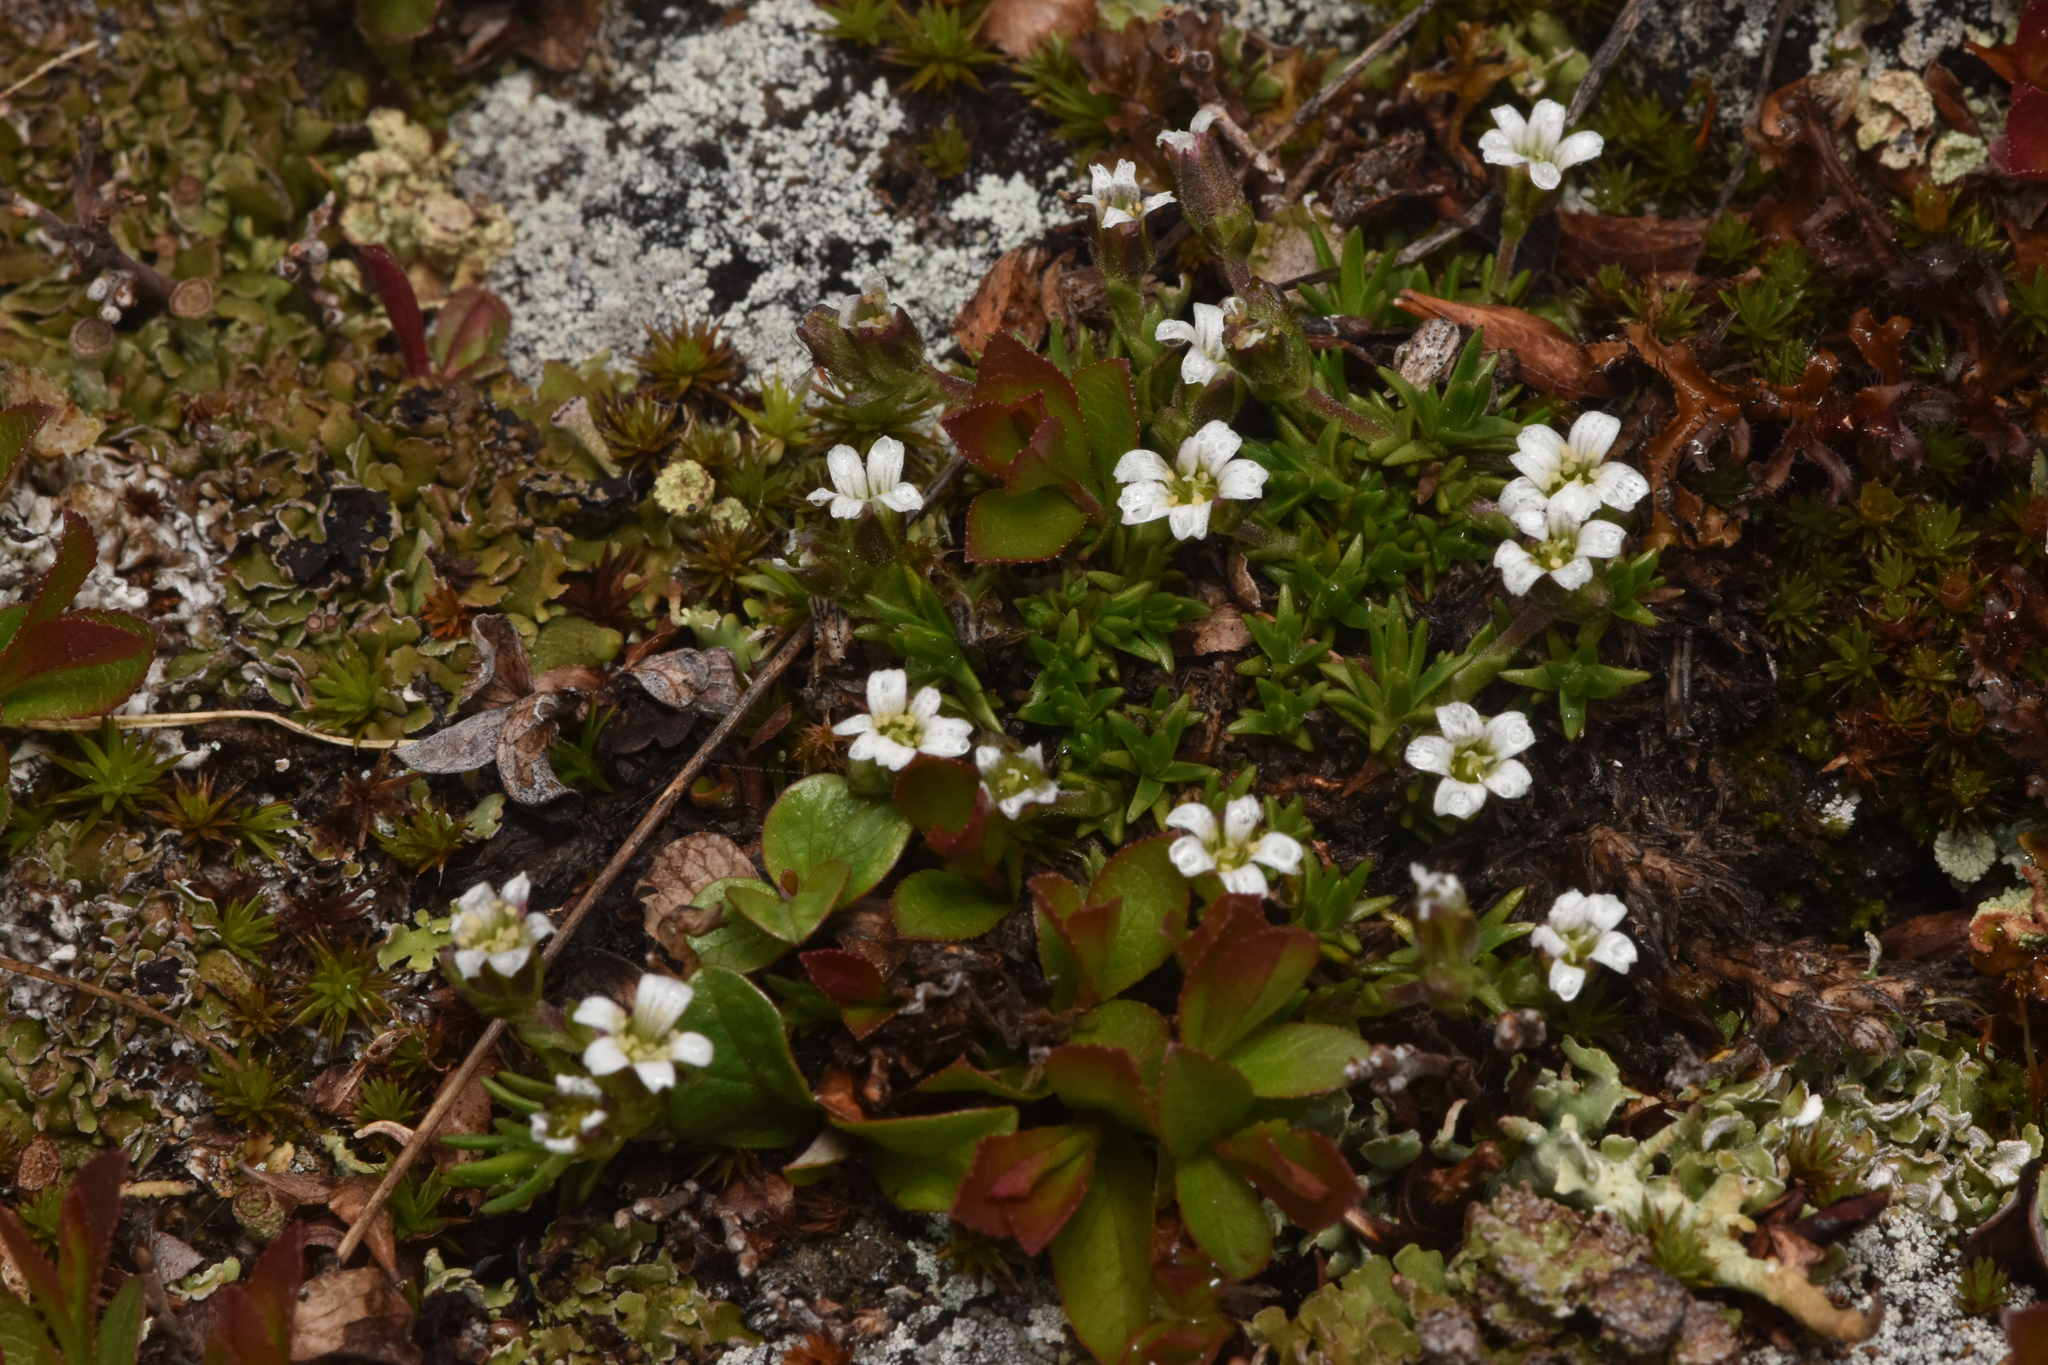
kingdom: Plantae
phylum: Tracheophyta
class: Magnoliopsida
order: Caryophyllales
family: Caryophyllaceae
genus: Cherleria
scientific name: Cherleria biflora
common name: Mountain sandwort
